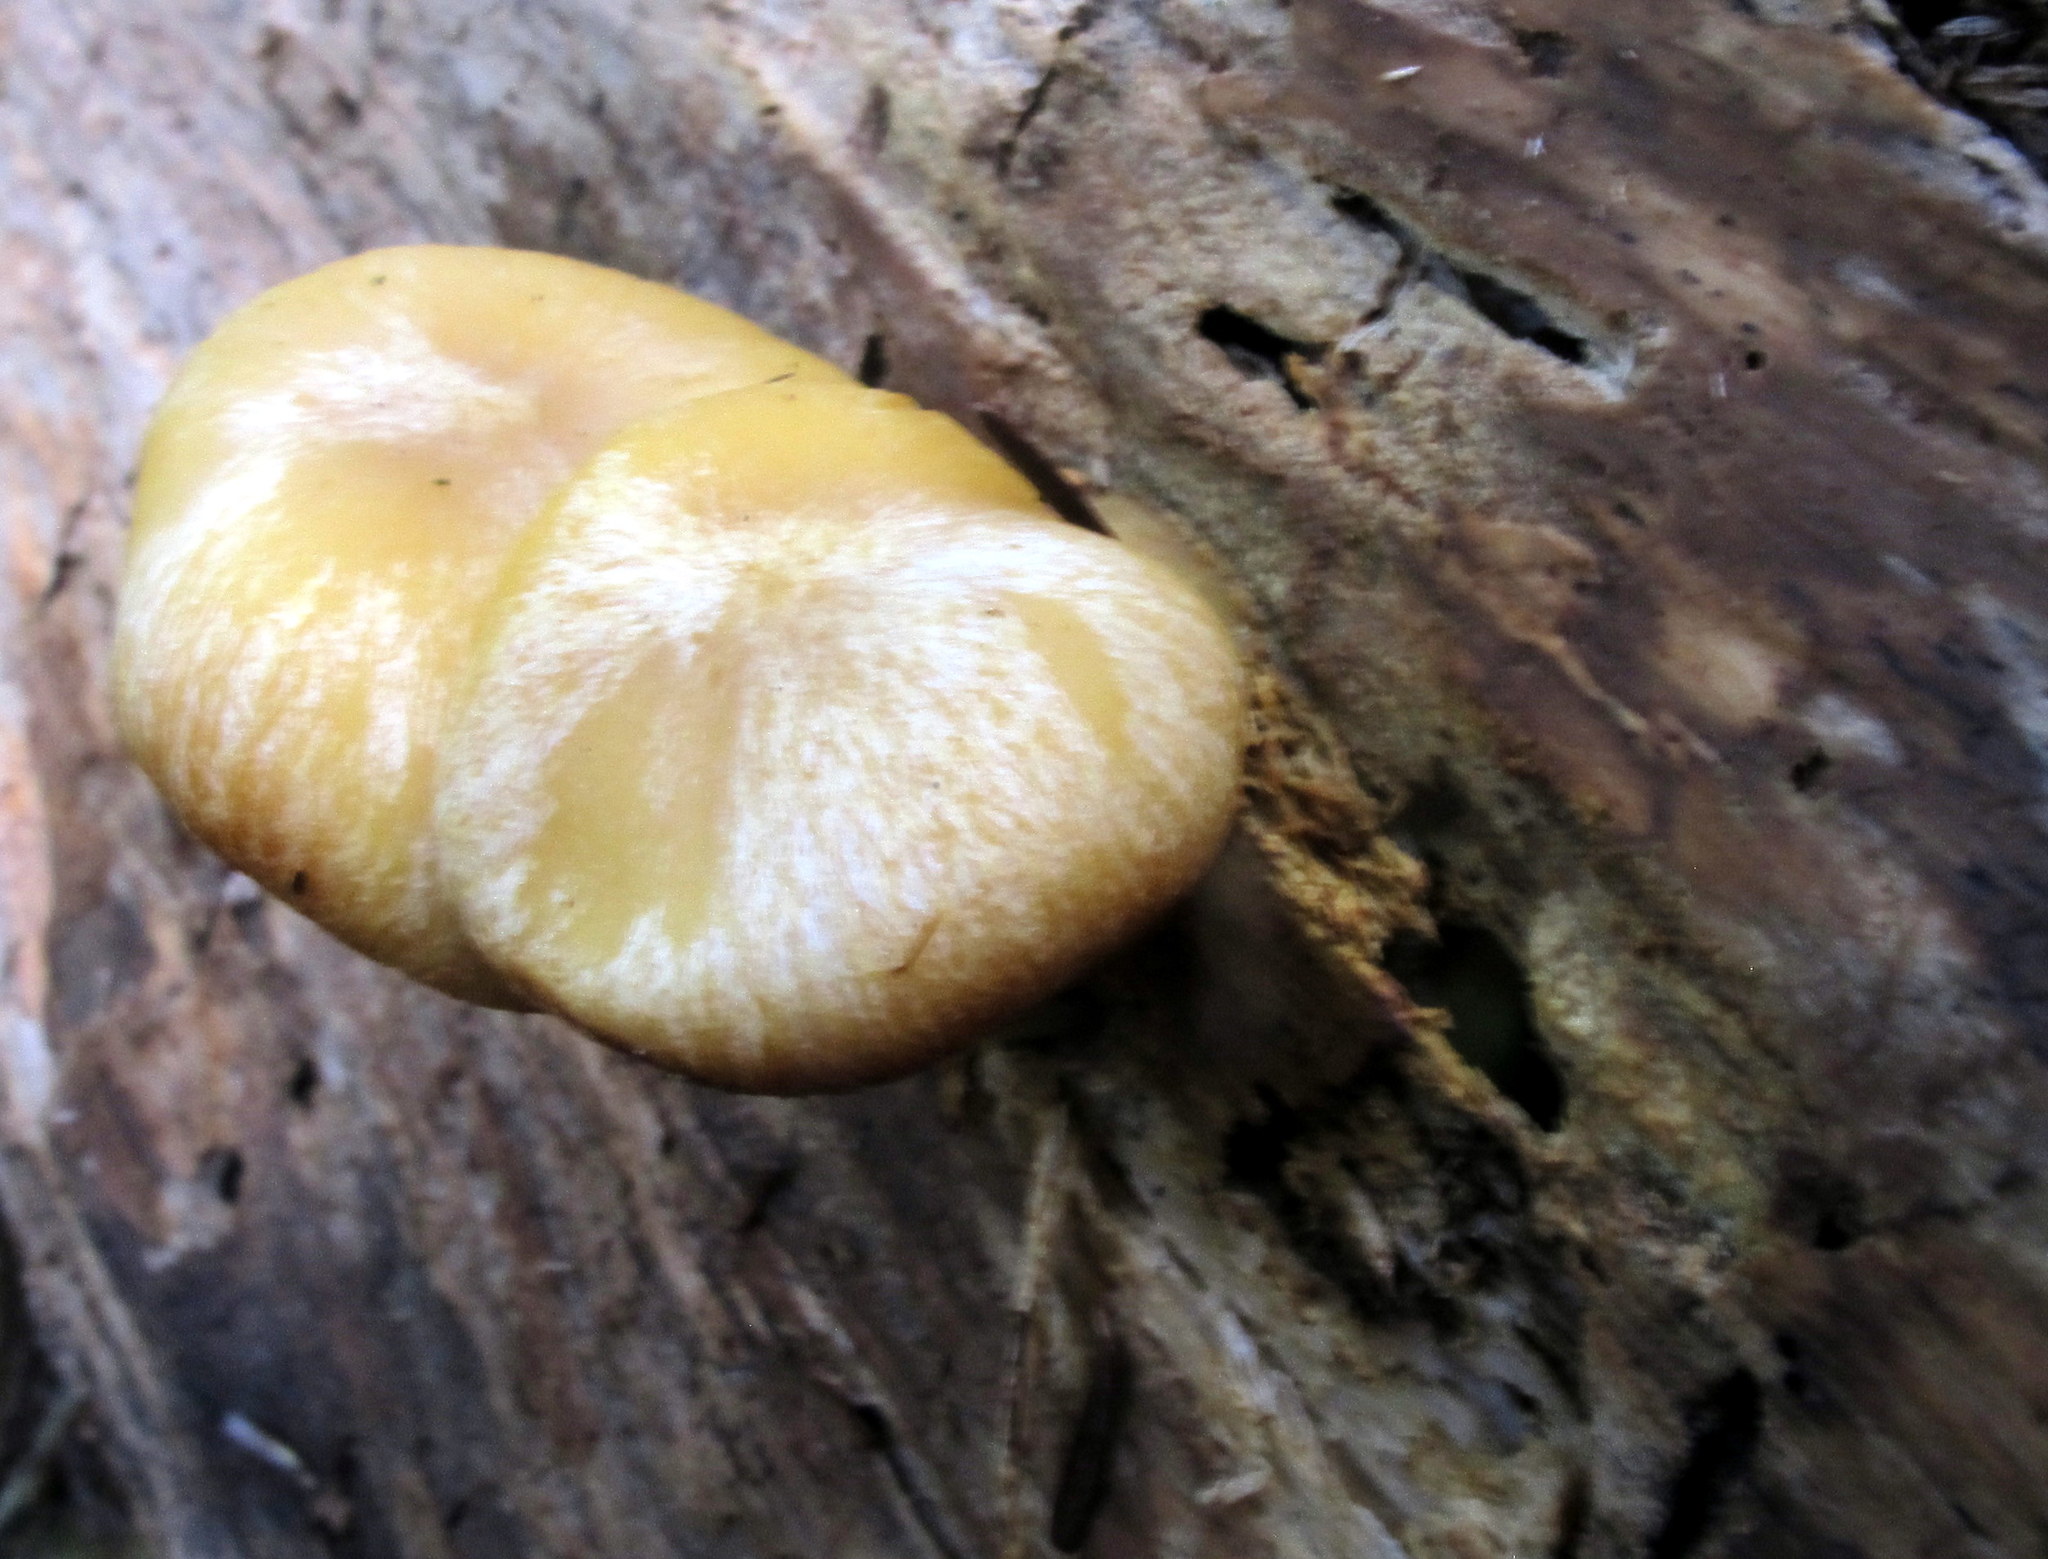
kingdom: Fungi
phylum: Basidiomycota
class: Agaricomycetes
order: Agaricales
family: Tricholomataceae
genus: Tricholomopsis
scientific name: Tricholomopsis sulfureoides
